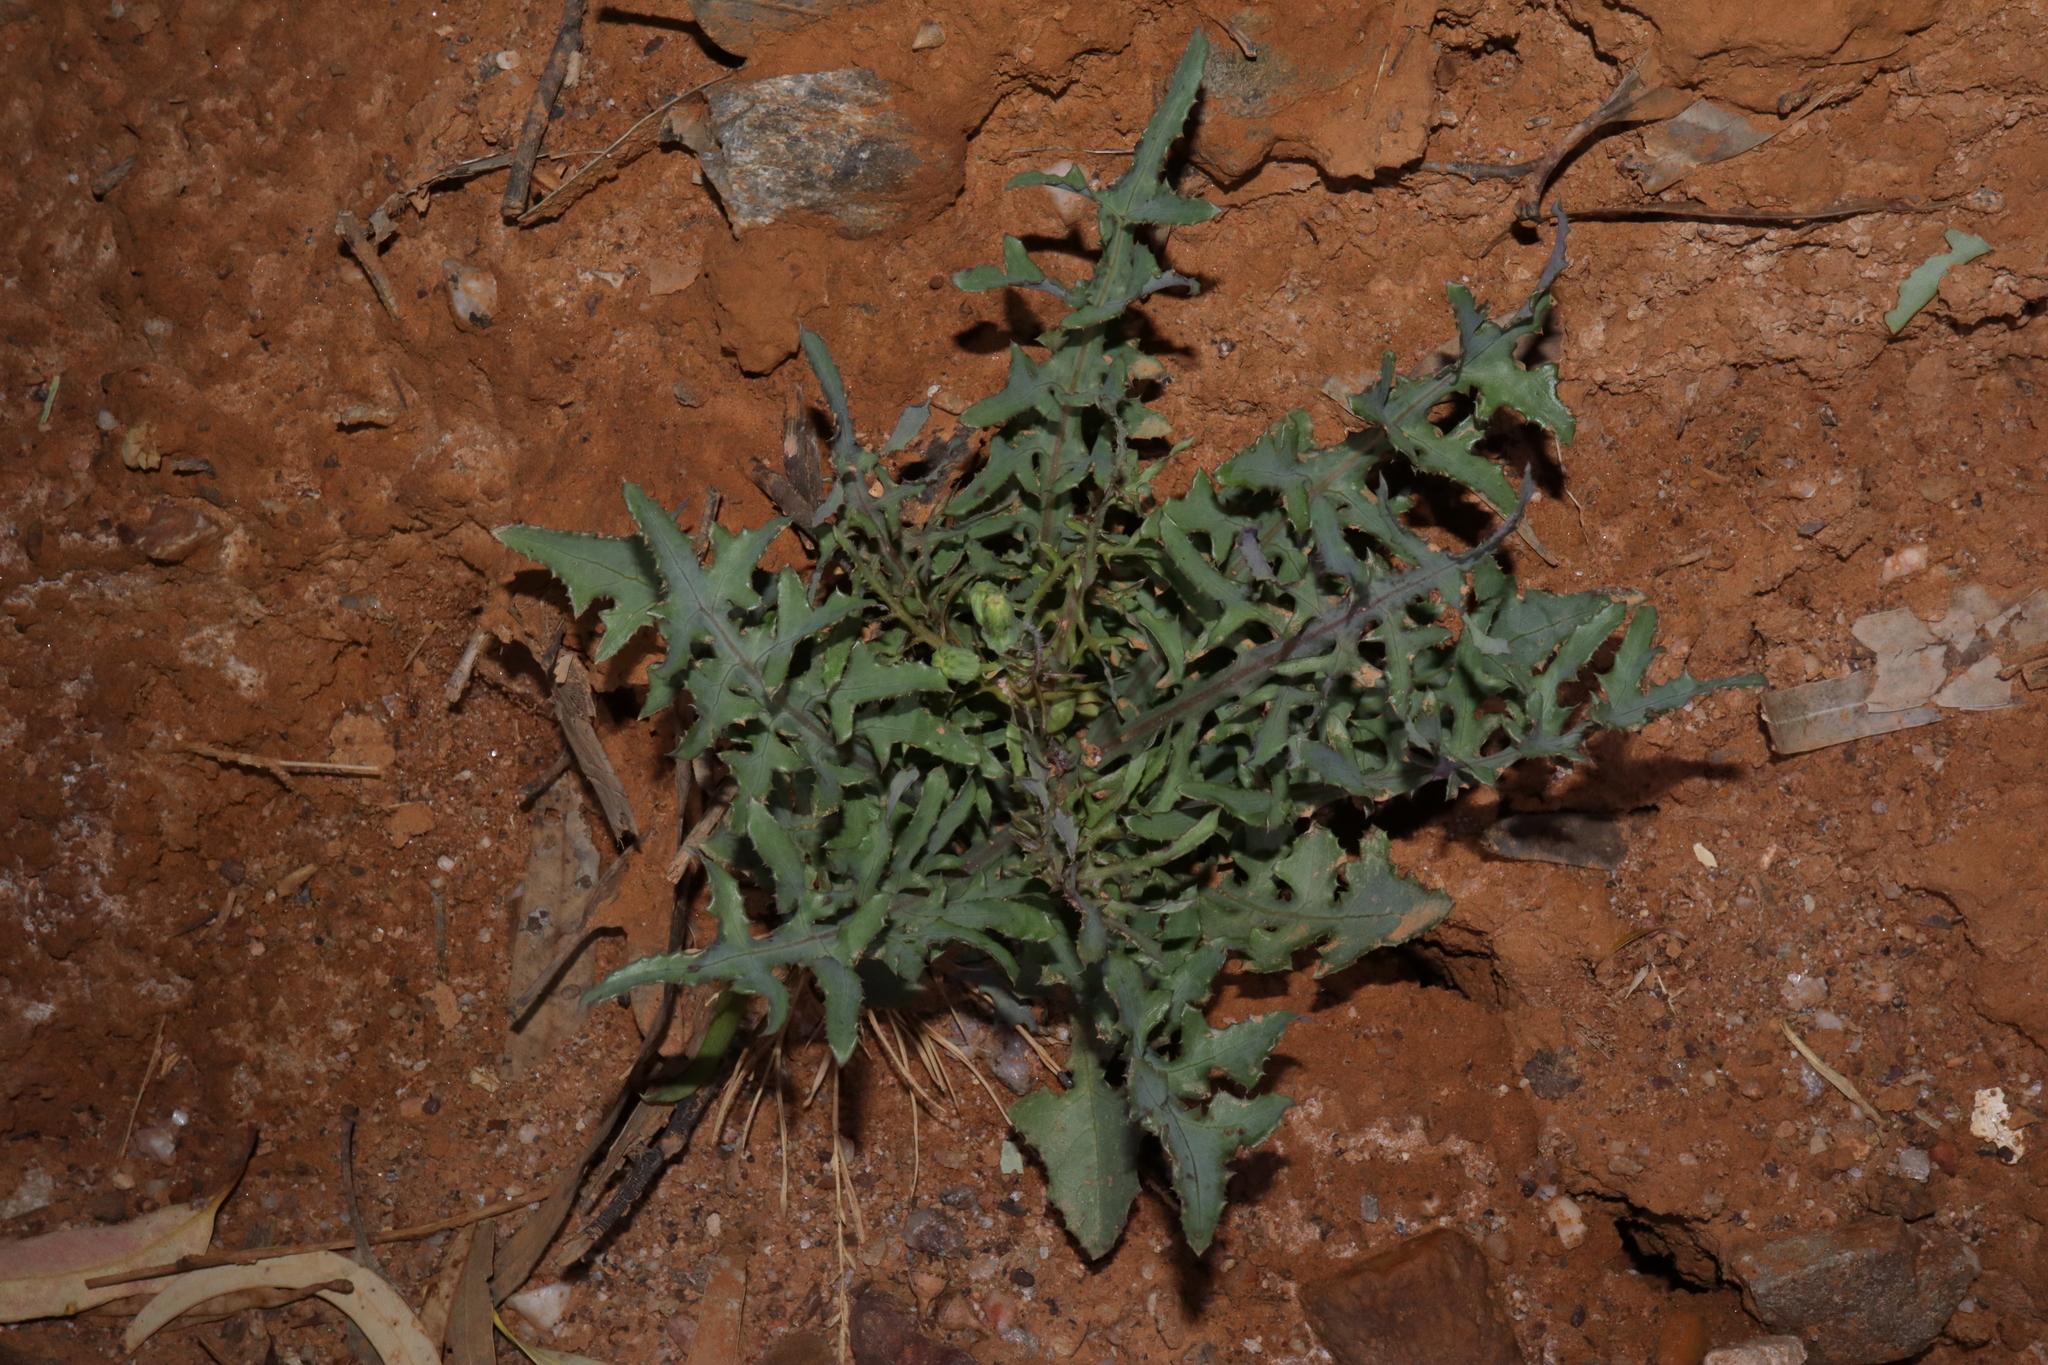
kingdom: Plantae
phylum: Tracheophyta
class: Magnoliopsida
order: Asterales
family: Asteraceae
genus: Sonchus
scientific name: Sonchus oleraceus
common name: Common sowthistle
